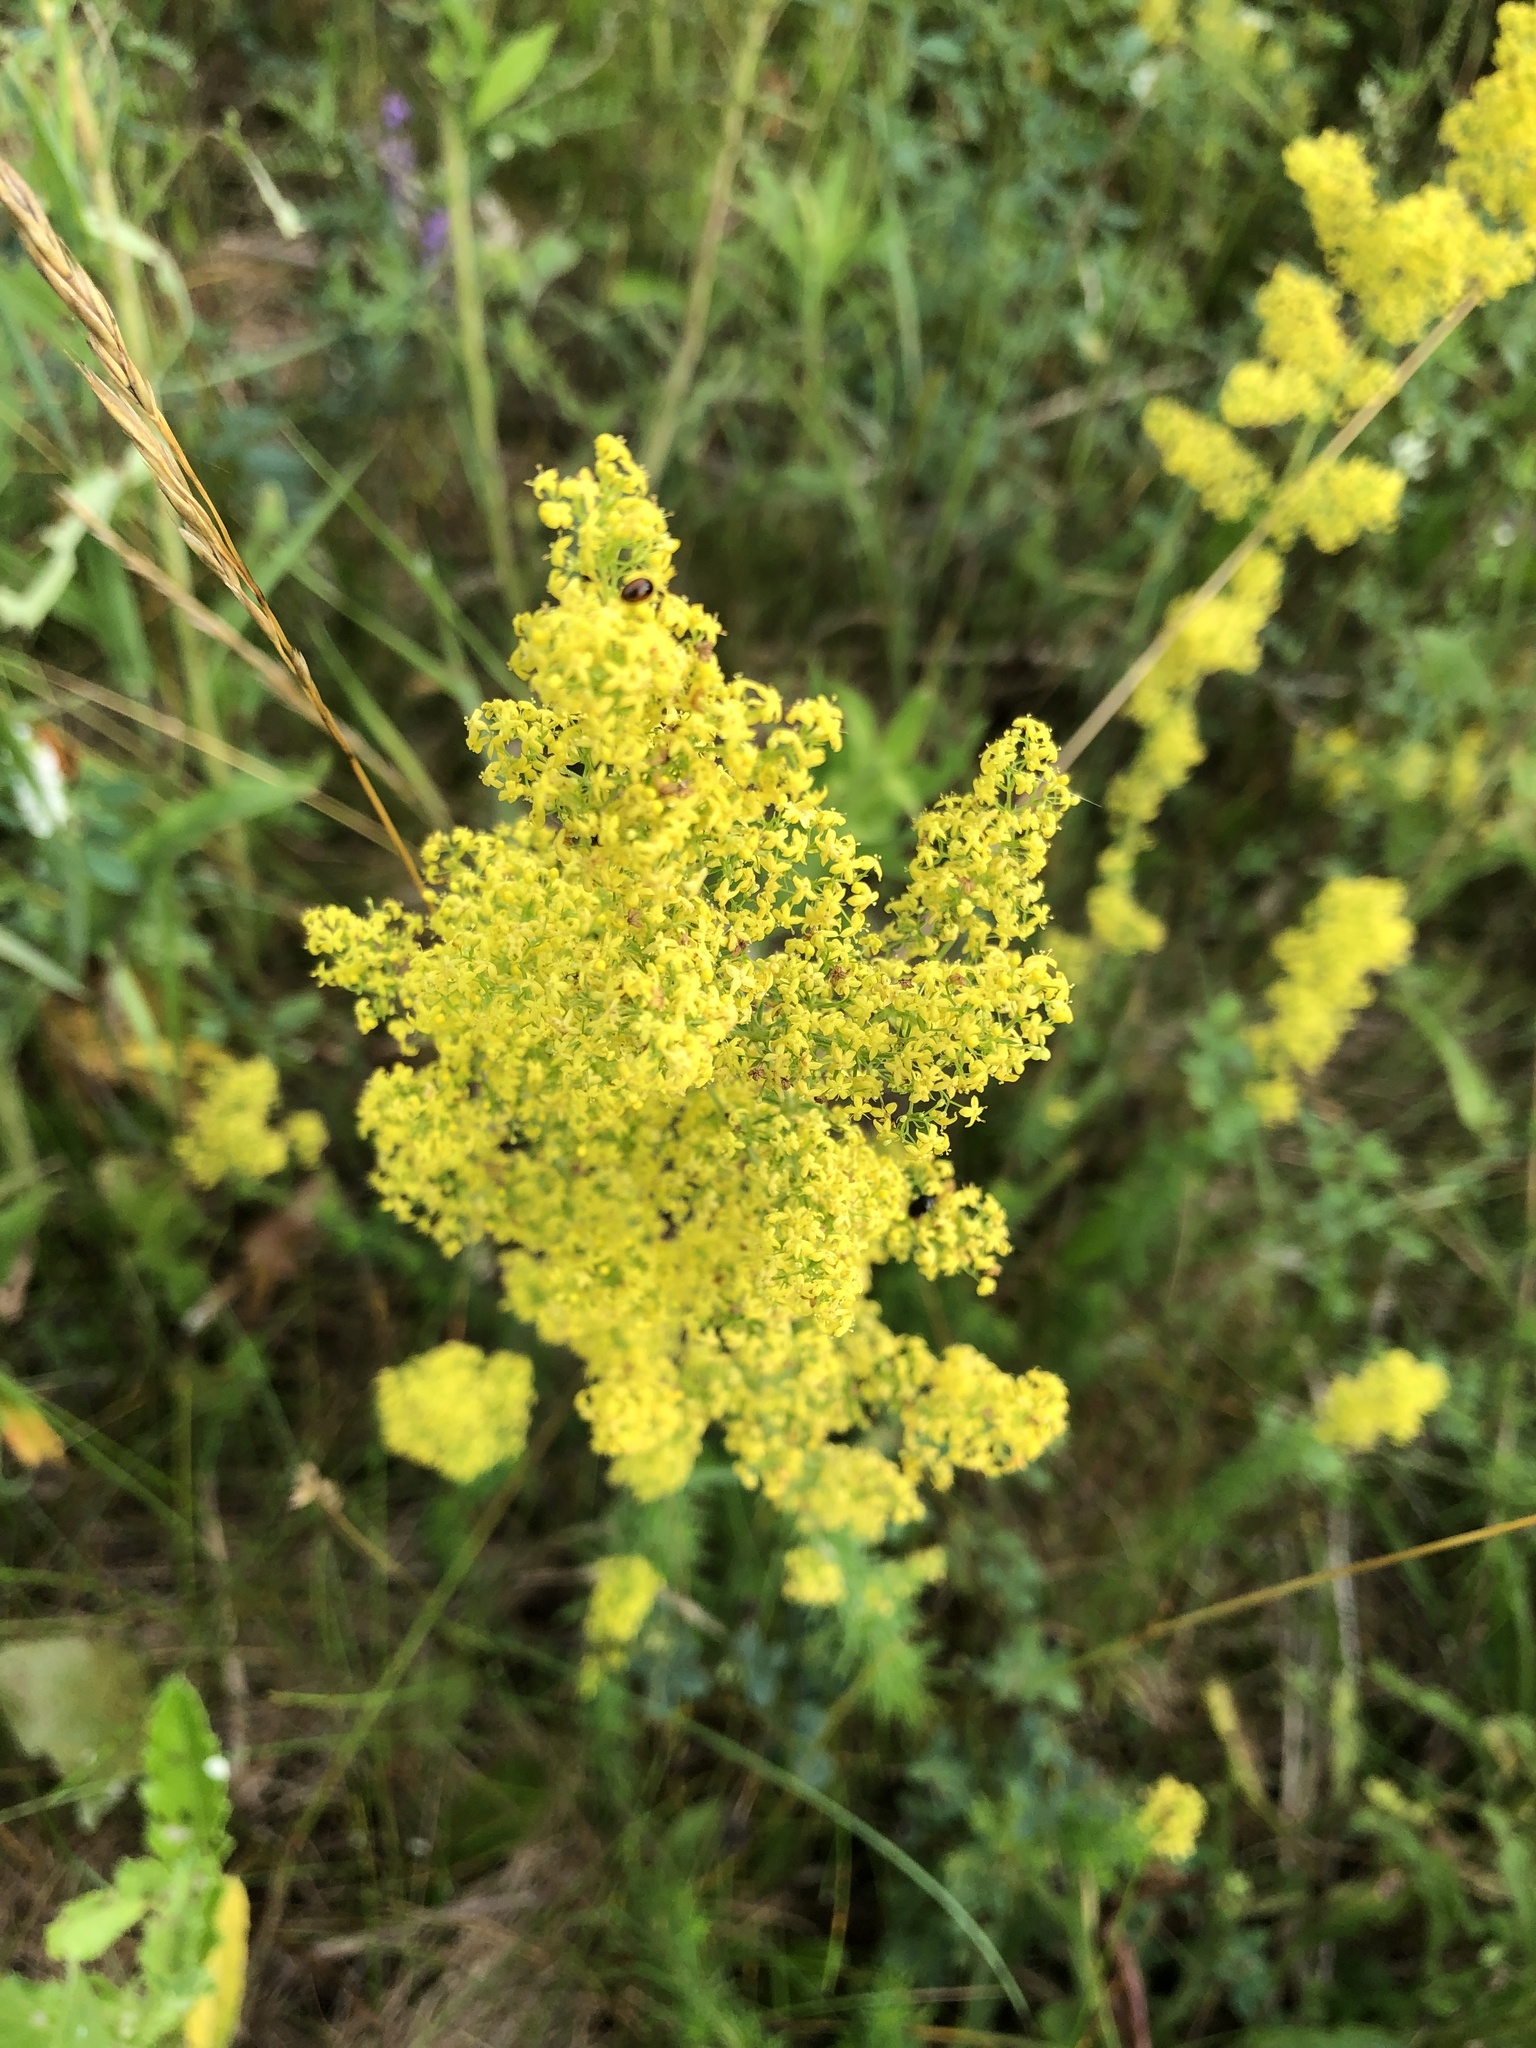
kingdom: Plantae
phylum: Tracheophyta
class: Magnoliopsida
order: Gentianales
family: Rubiaceae
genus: Galium
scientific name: Galium verum
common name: Lady's bedstraw
